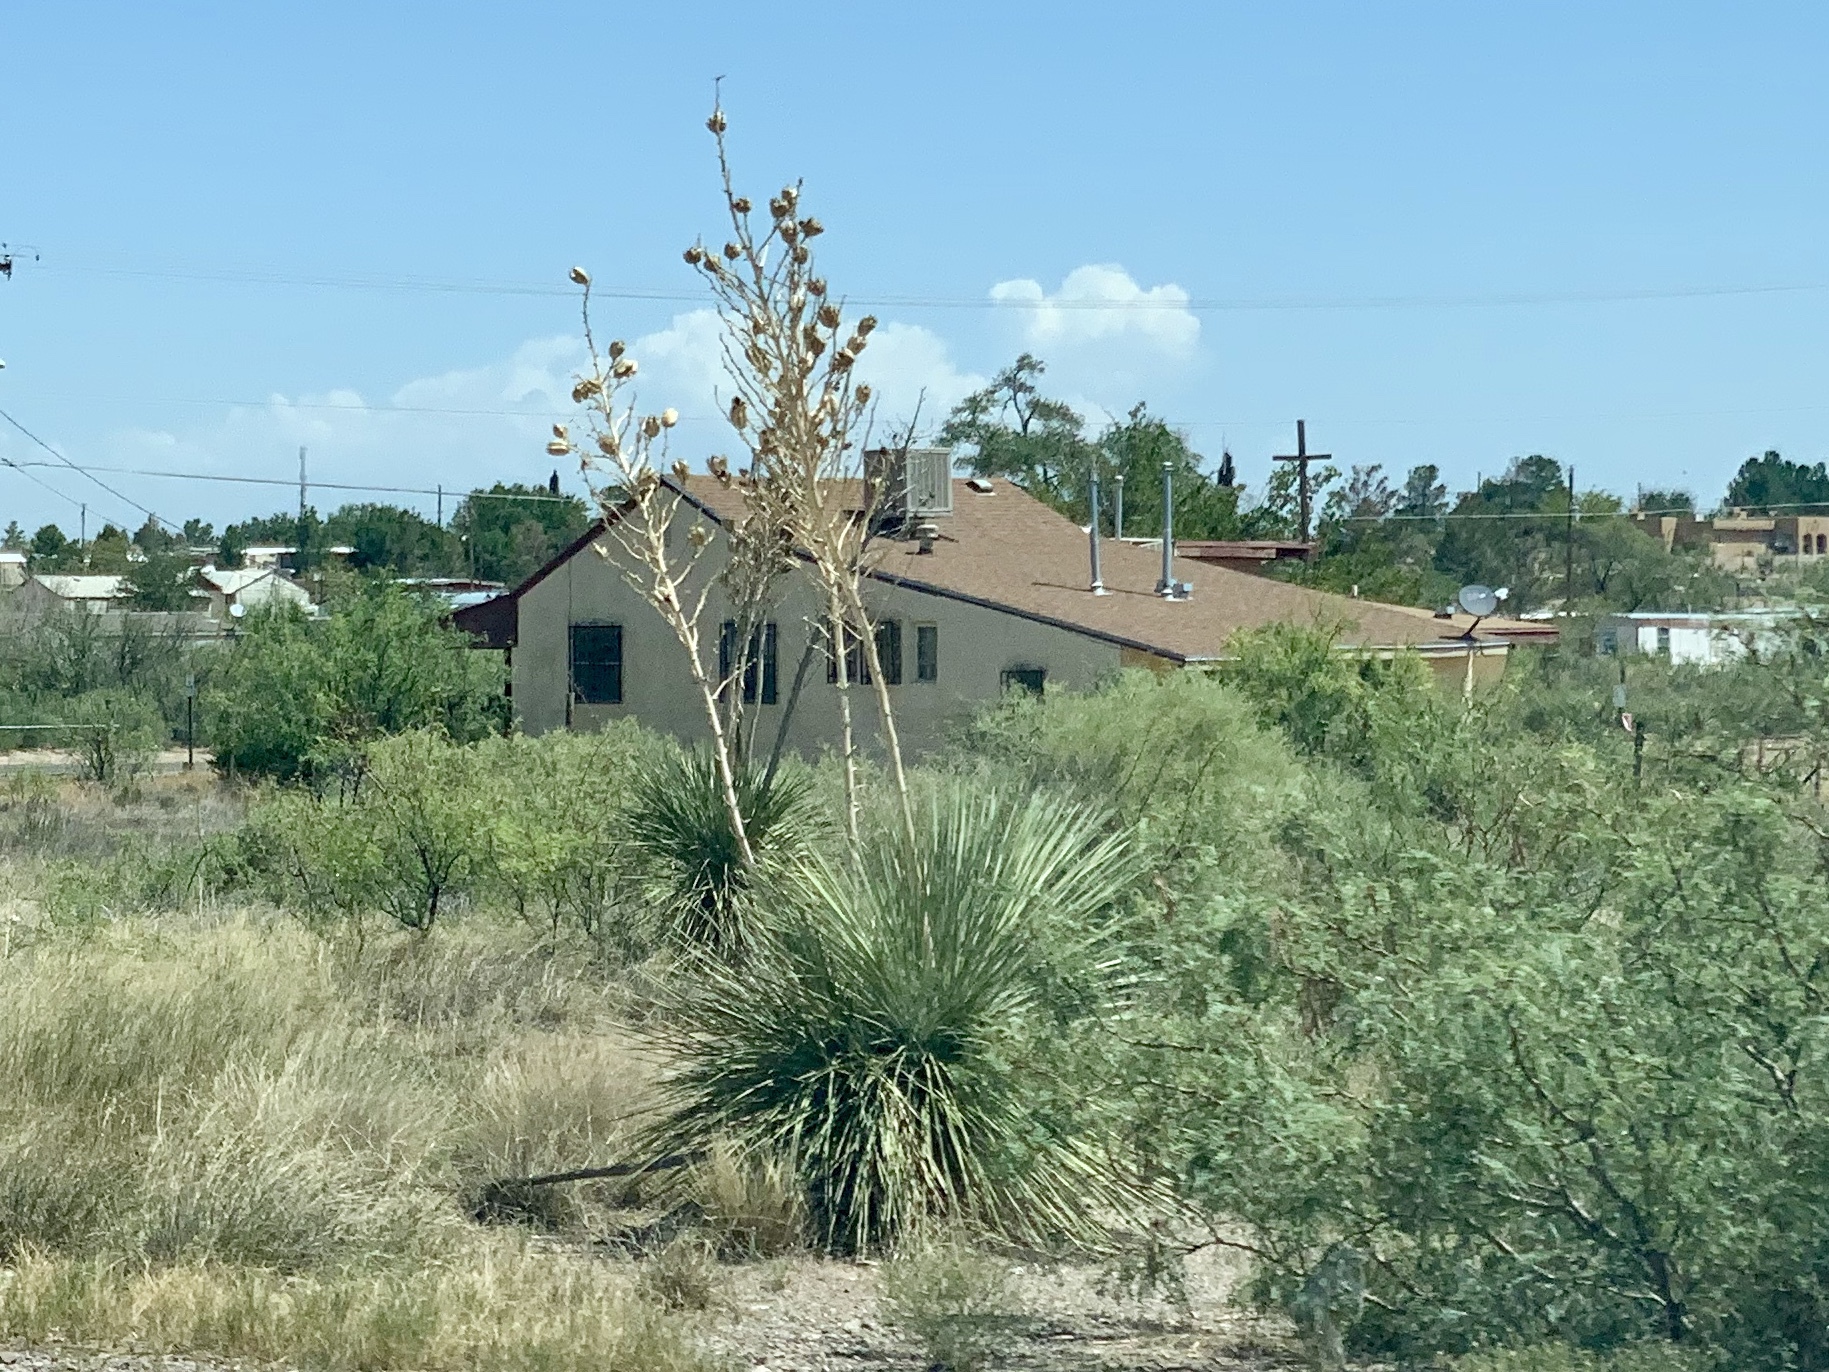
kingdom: Plantae
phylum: Tracheophyta
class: Liliopsida
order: Asparagales
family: Asparagaceae
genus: Yucca
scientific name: Yucca elata
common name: Palmella
